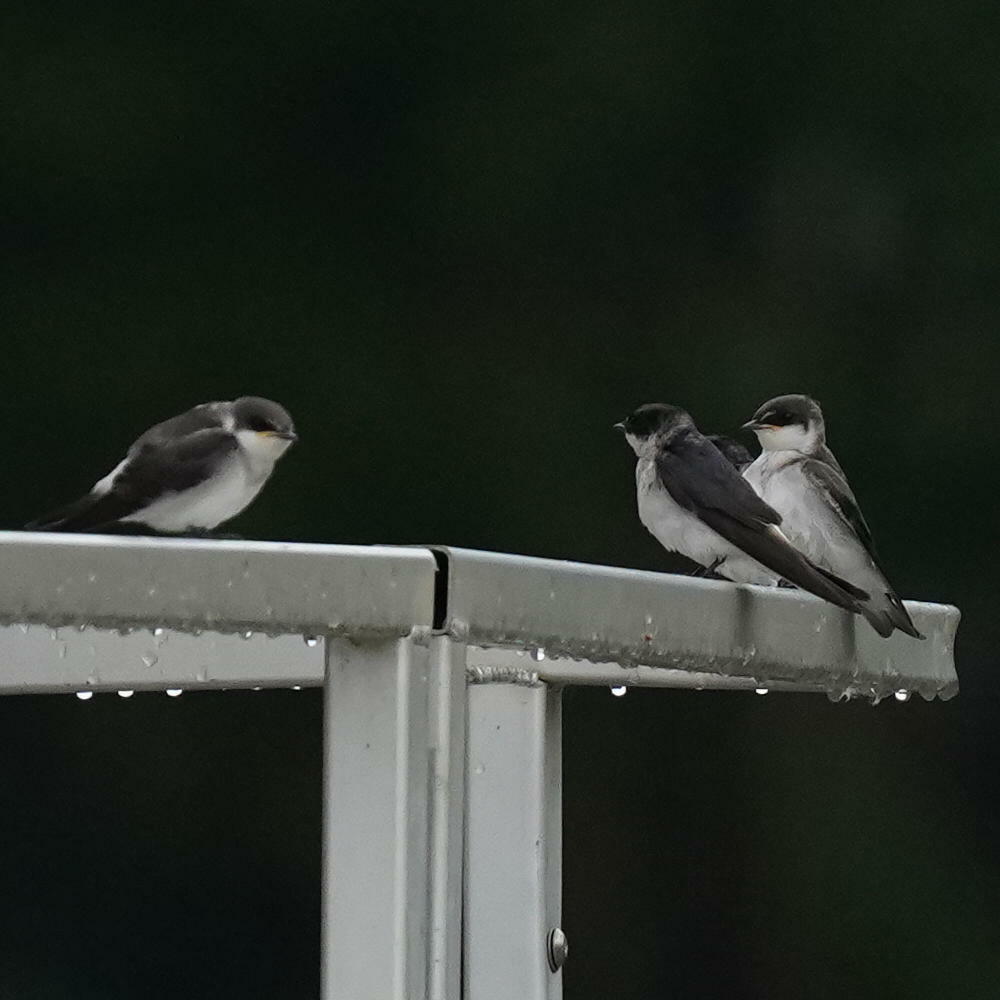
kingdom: Animalia
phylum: Chordata
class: Aves
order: Passeriformes
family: Hirundinidae
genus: Tachycineta
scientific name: Tachycineta albilinea
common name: Mangrove swallow
